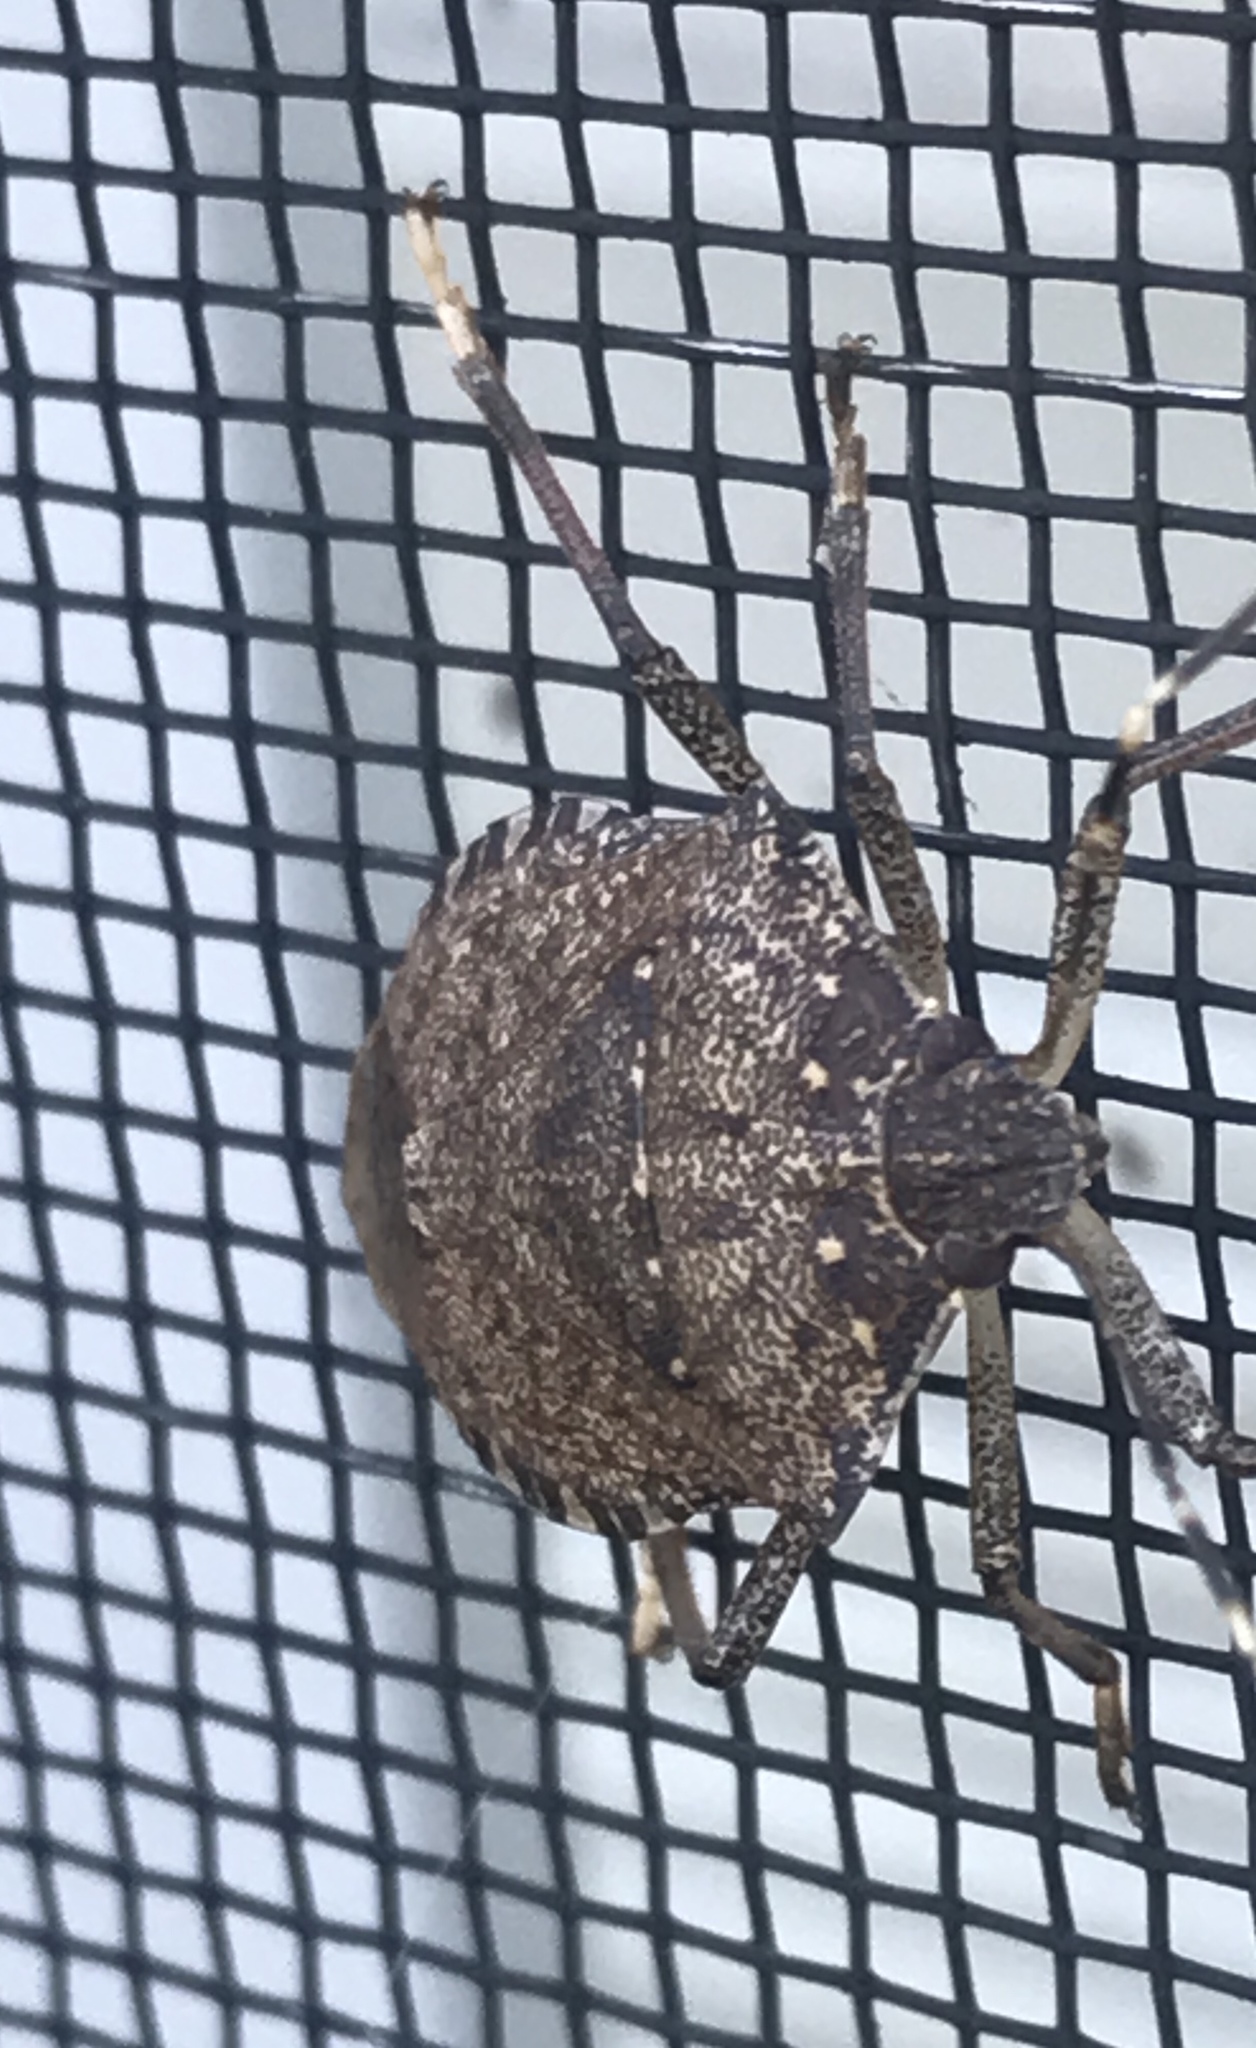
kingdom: Animalia
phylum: Arthropoda
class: Insecta
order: Hemiptera
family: Pentatomidae
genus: Halyomorpha
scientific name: Halyomorpha halys
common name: Brown marmorated stink bug
